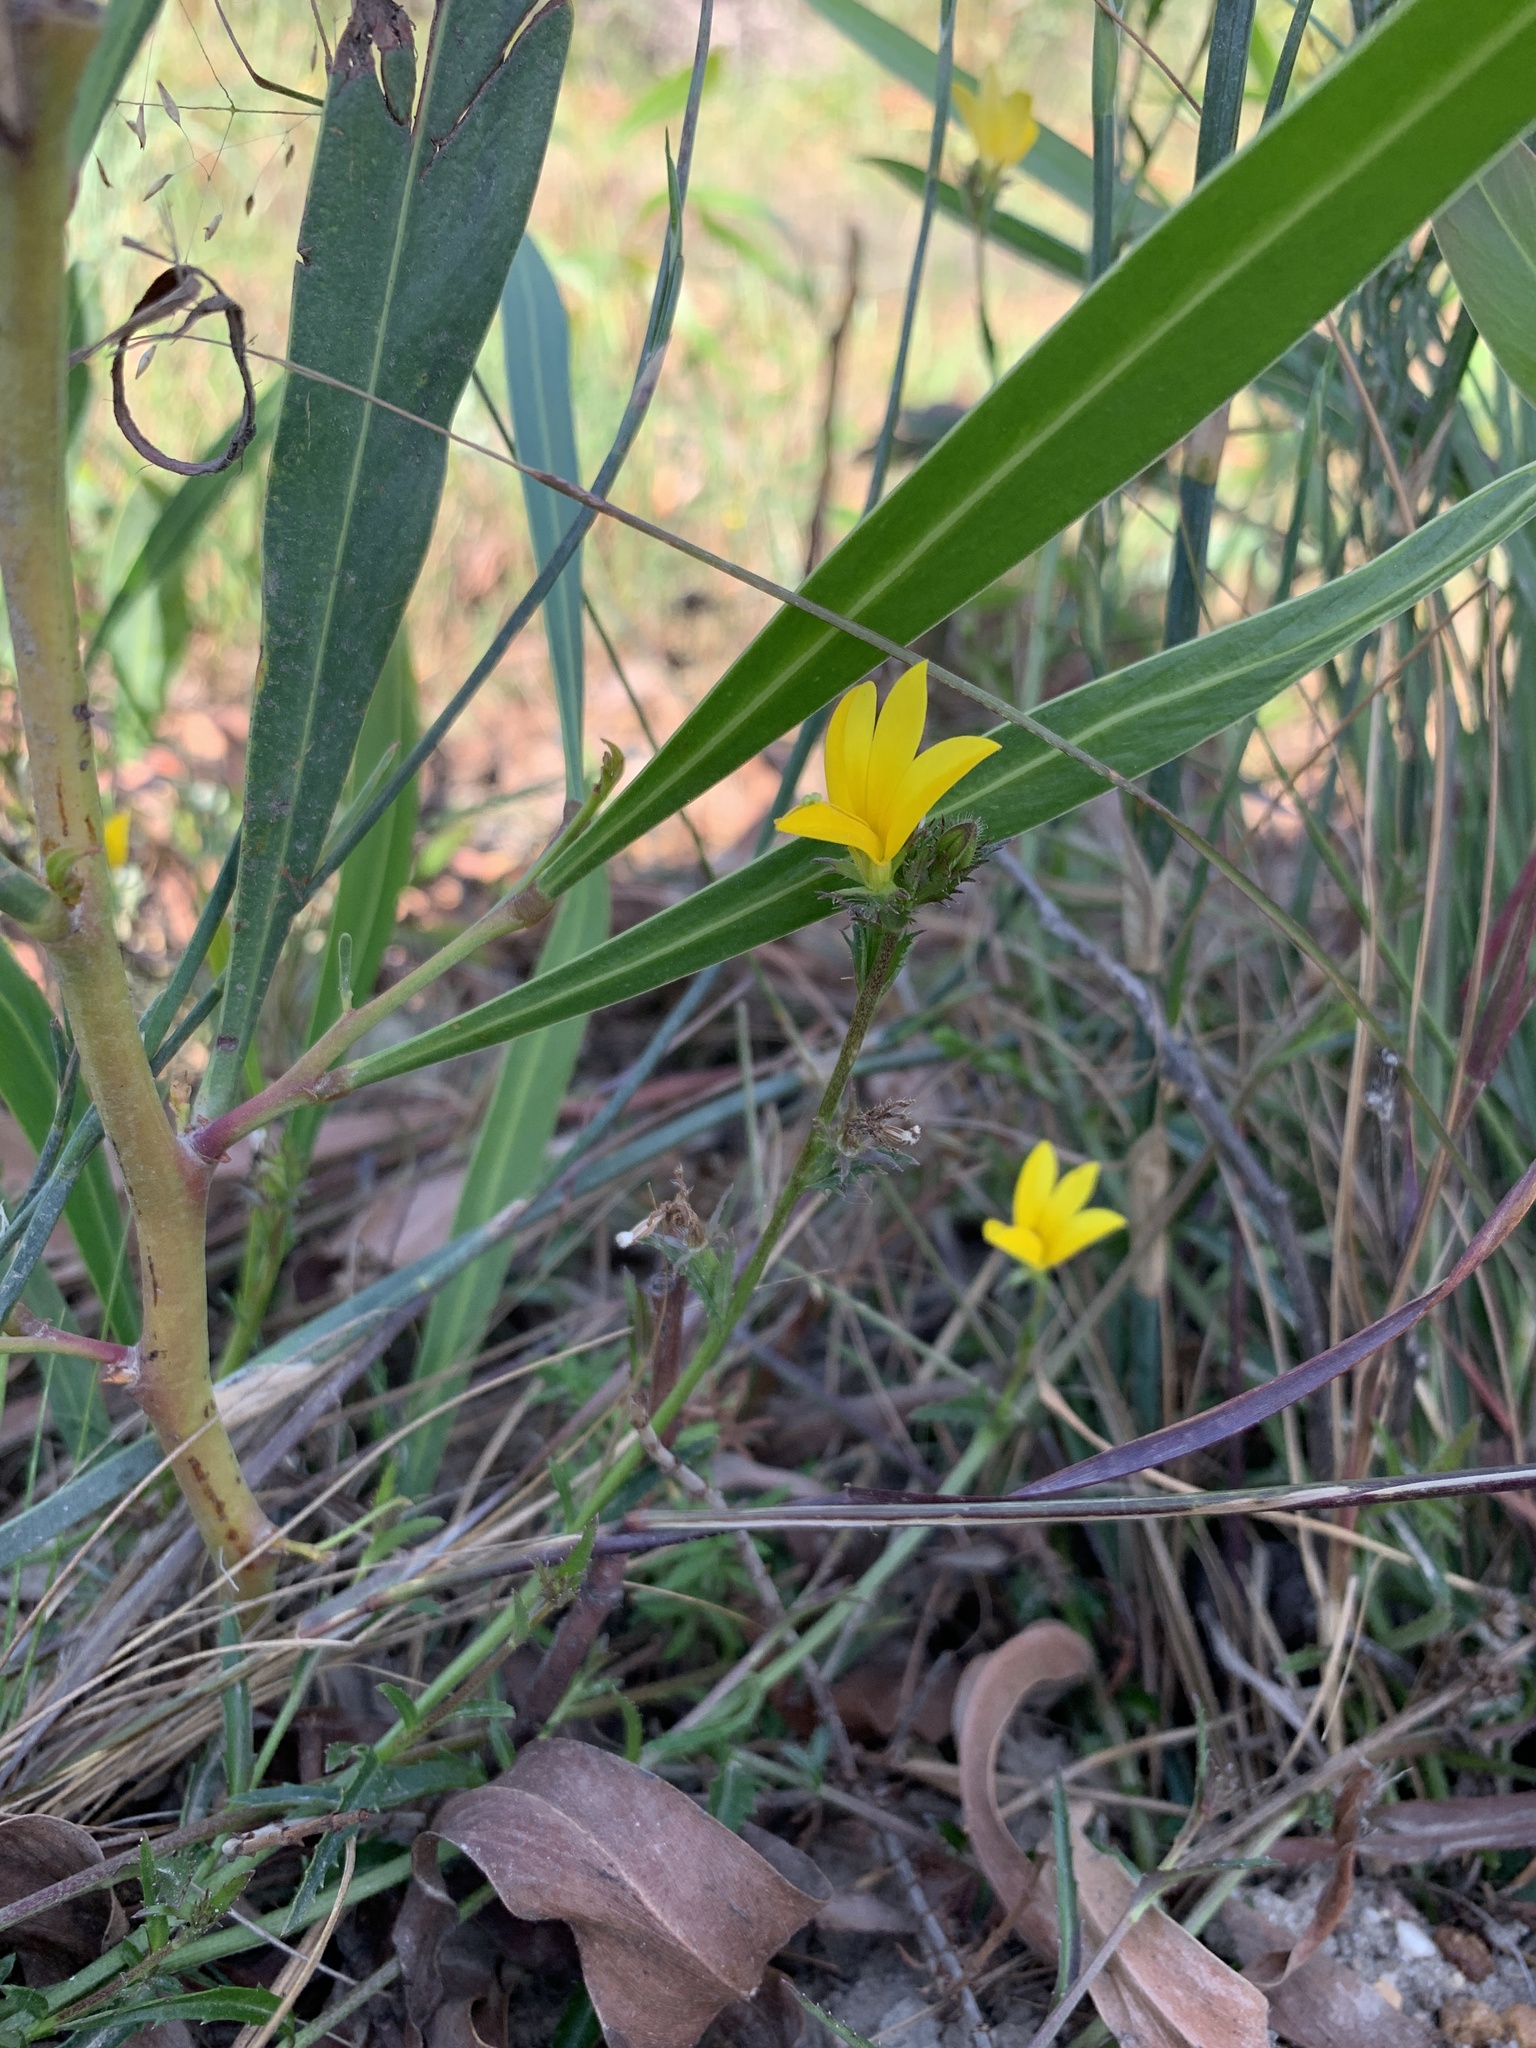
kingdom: Plantae
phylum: Tracheophyta
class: Magnoliopsida
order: Asterales
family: Campanulaceae
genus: Monopsis
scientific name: Monopsis lutea
